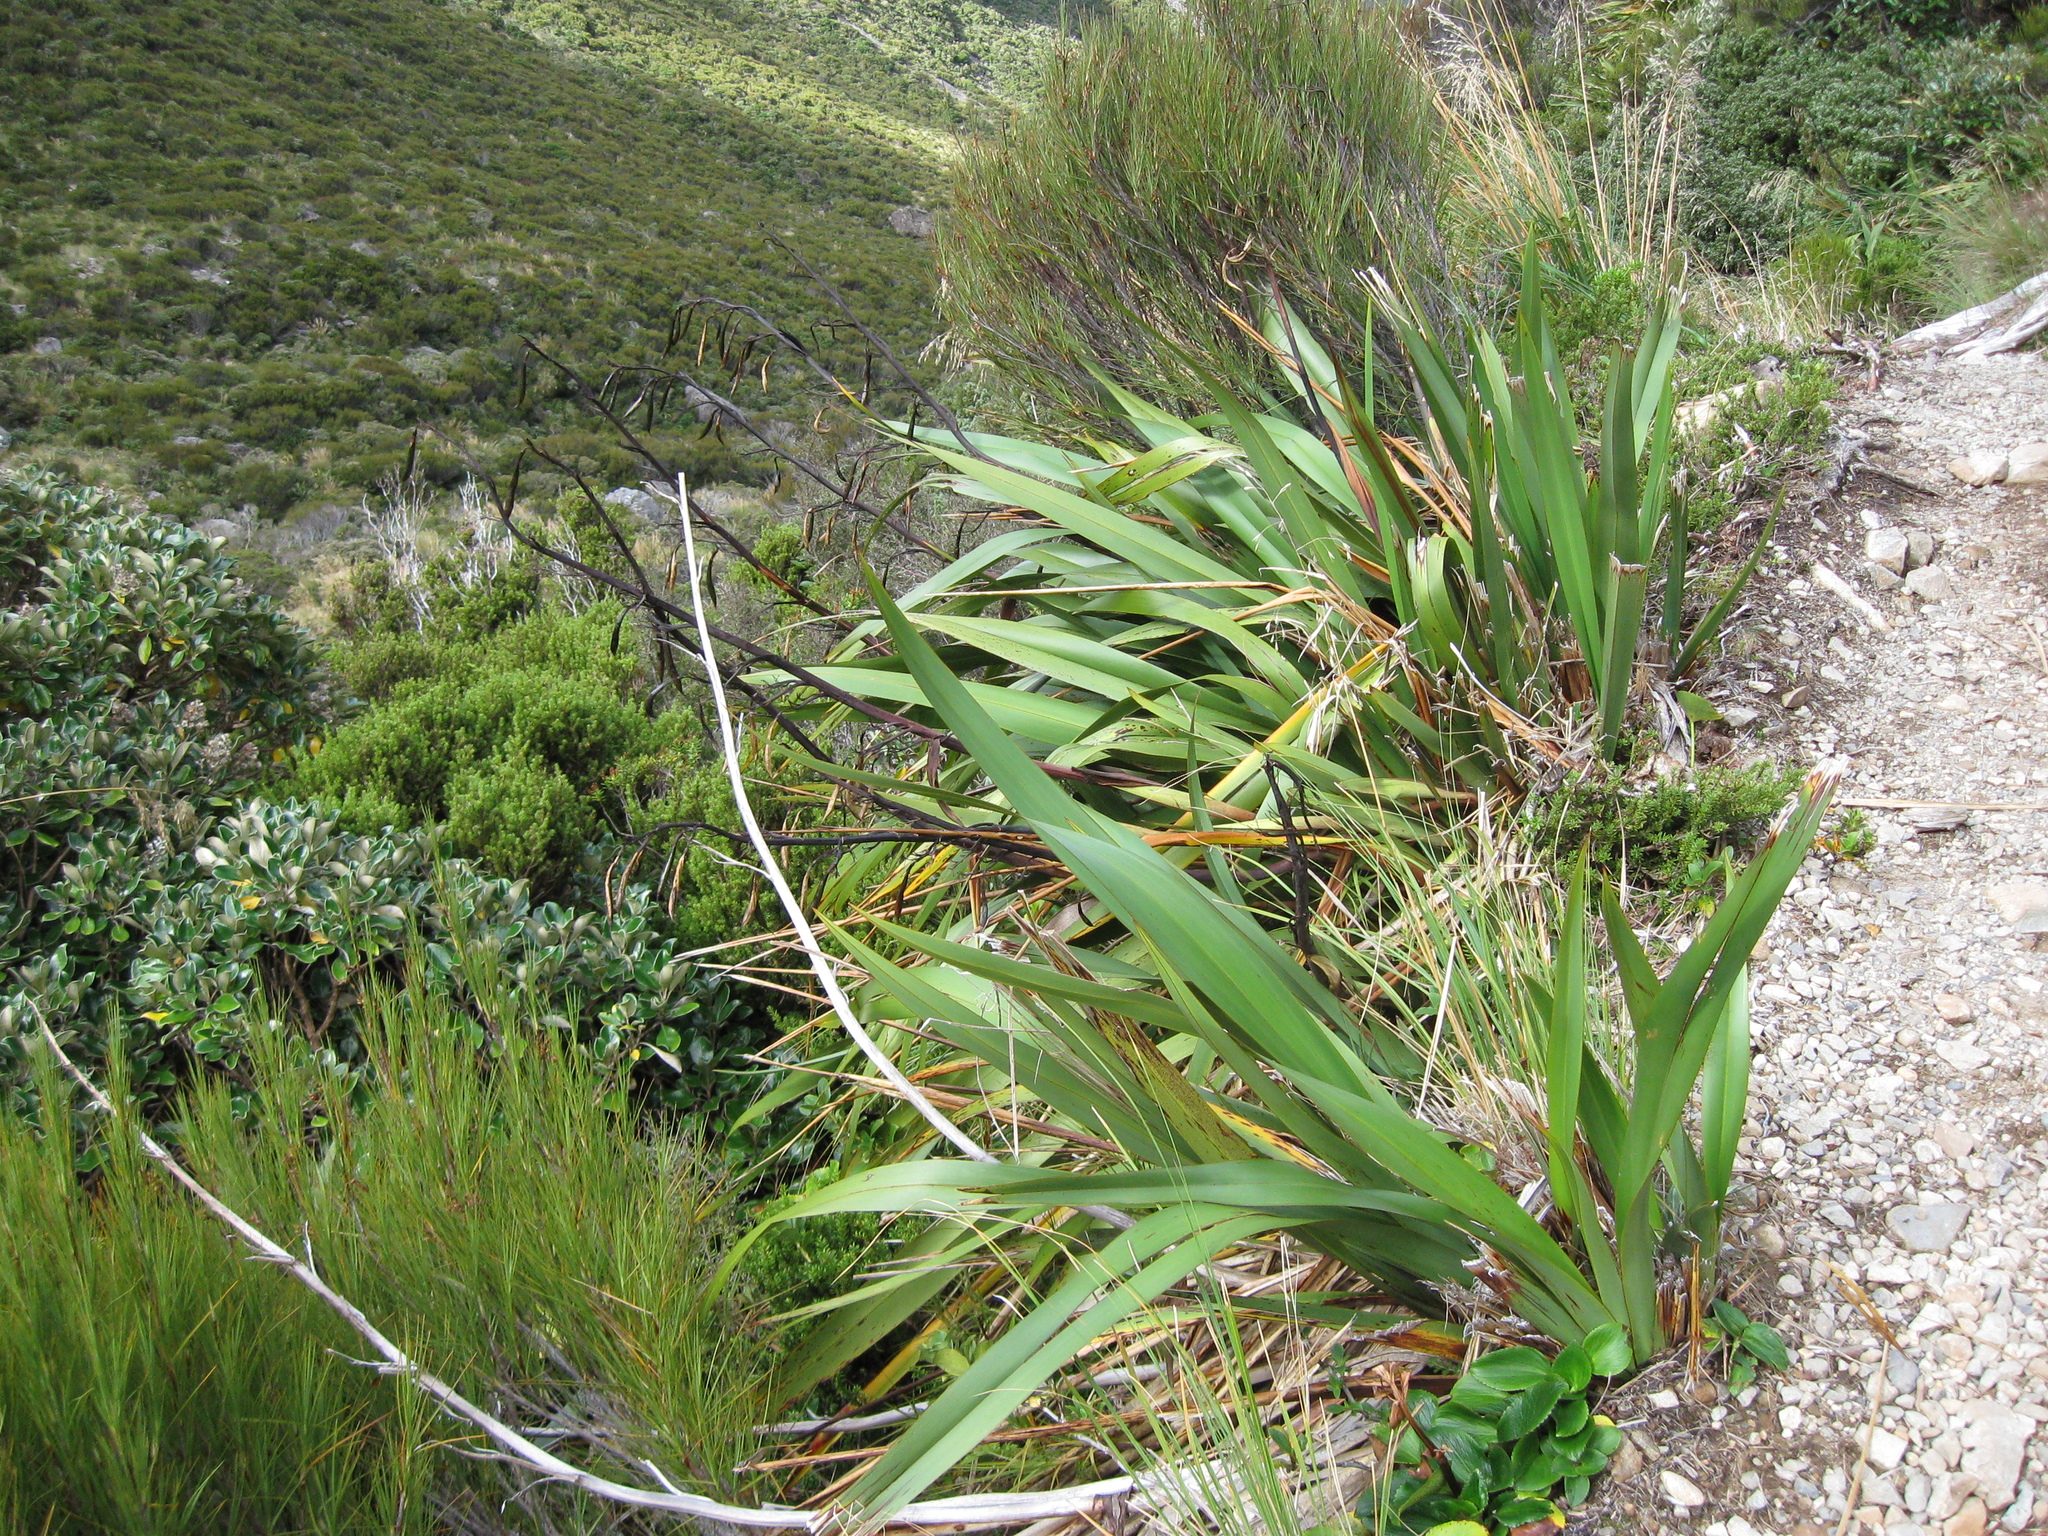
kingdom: Plantae
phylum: Tracheophyta
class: Liliopsida
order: Asparagales
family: Asphodelaceae
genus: Phormium
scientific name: Phormium colensoi
